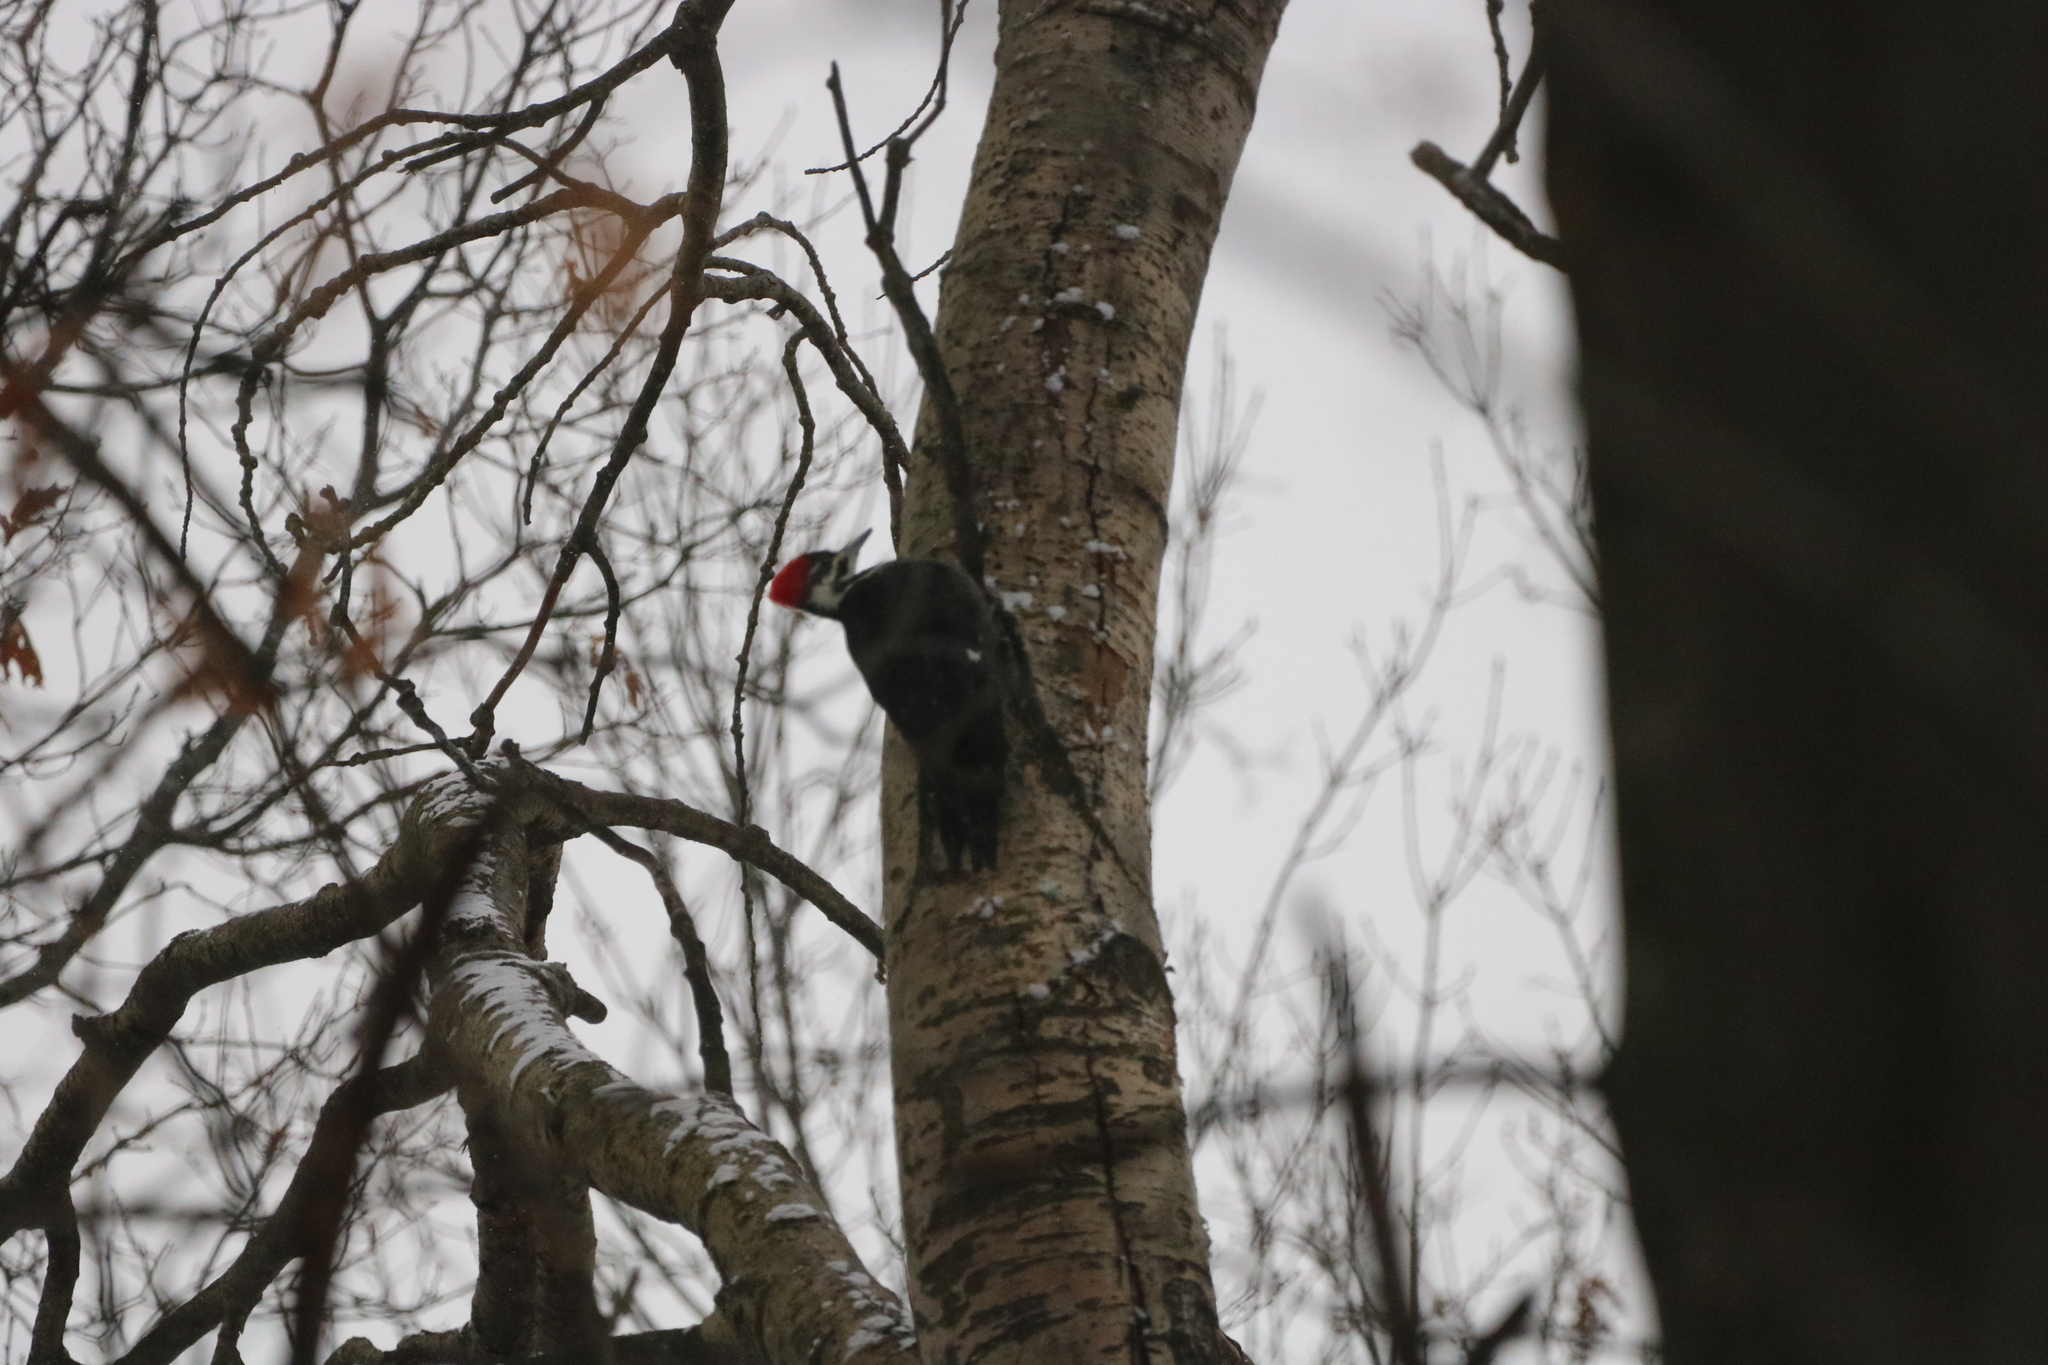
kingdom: Animalia
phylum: Chordata
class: Aves
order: Piciformes
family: Picidae
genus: Dryocopus
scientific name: Dryocopus pileatus
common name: Pileated woodpecker
